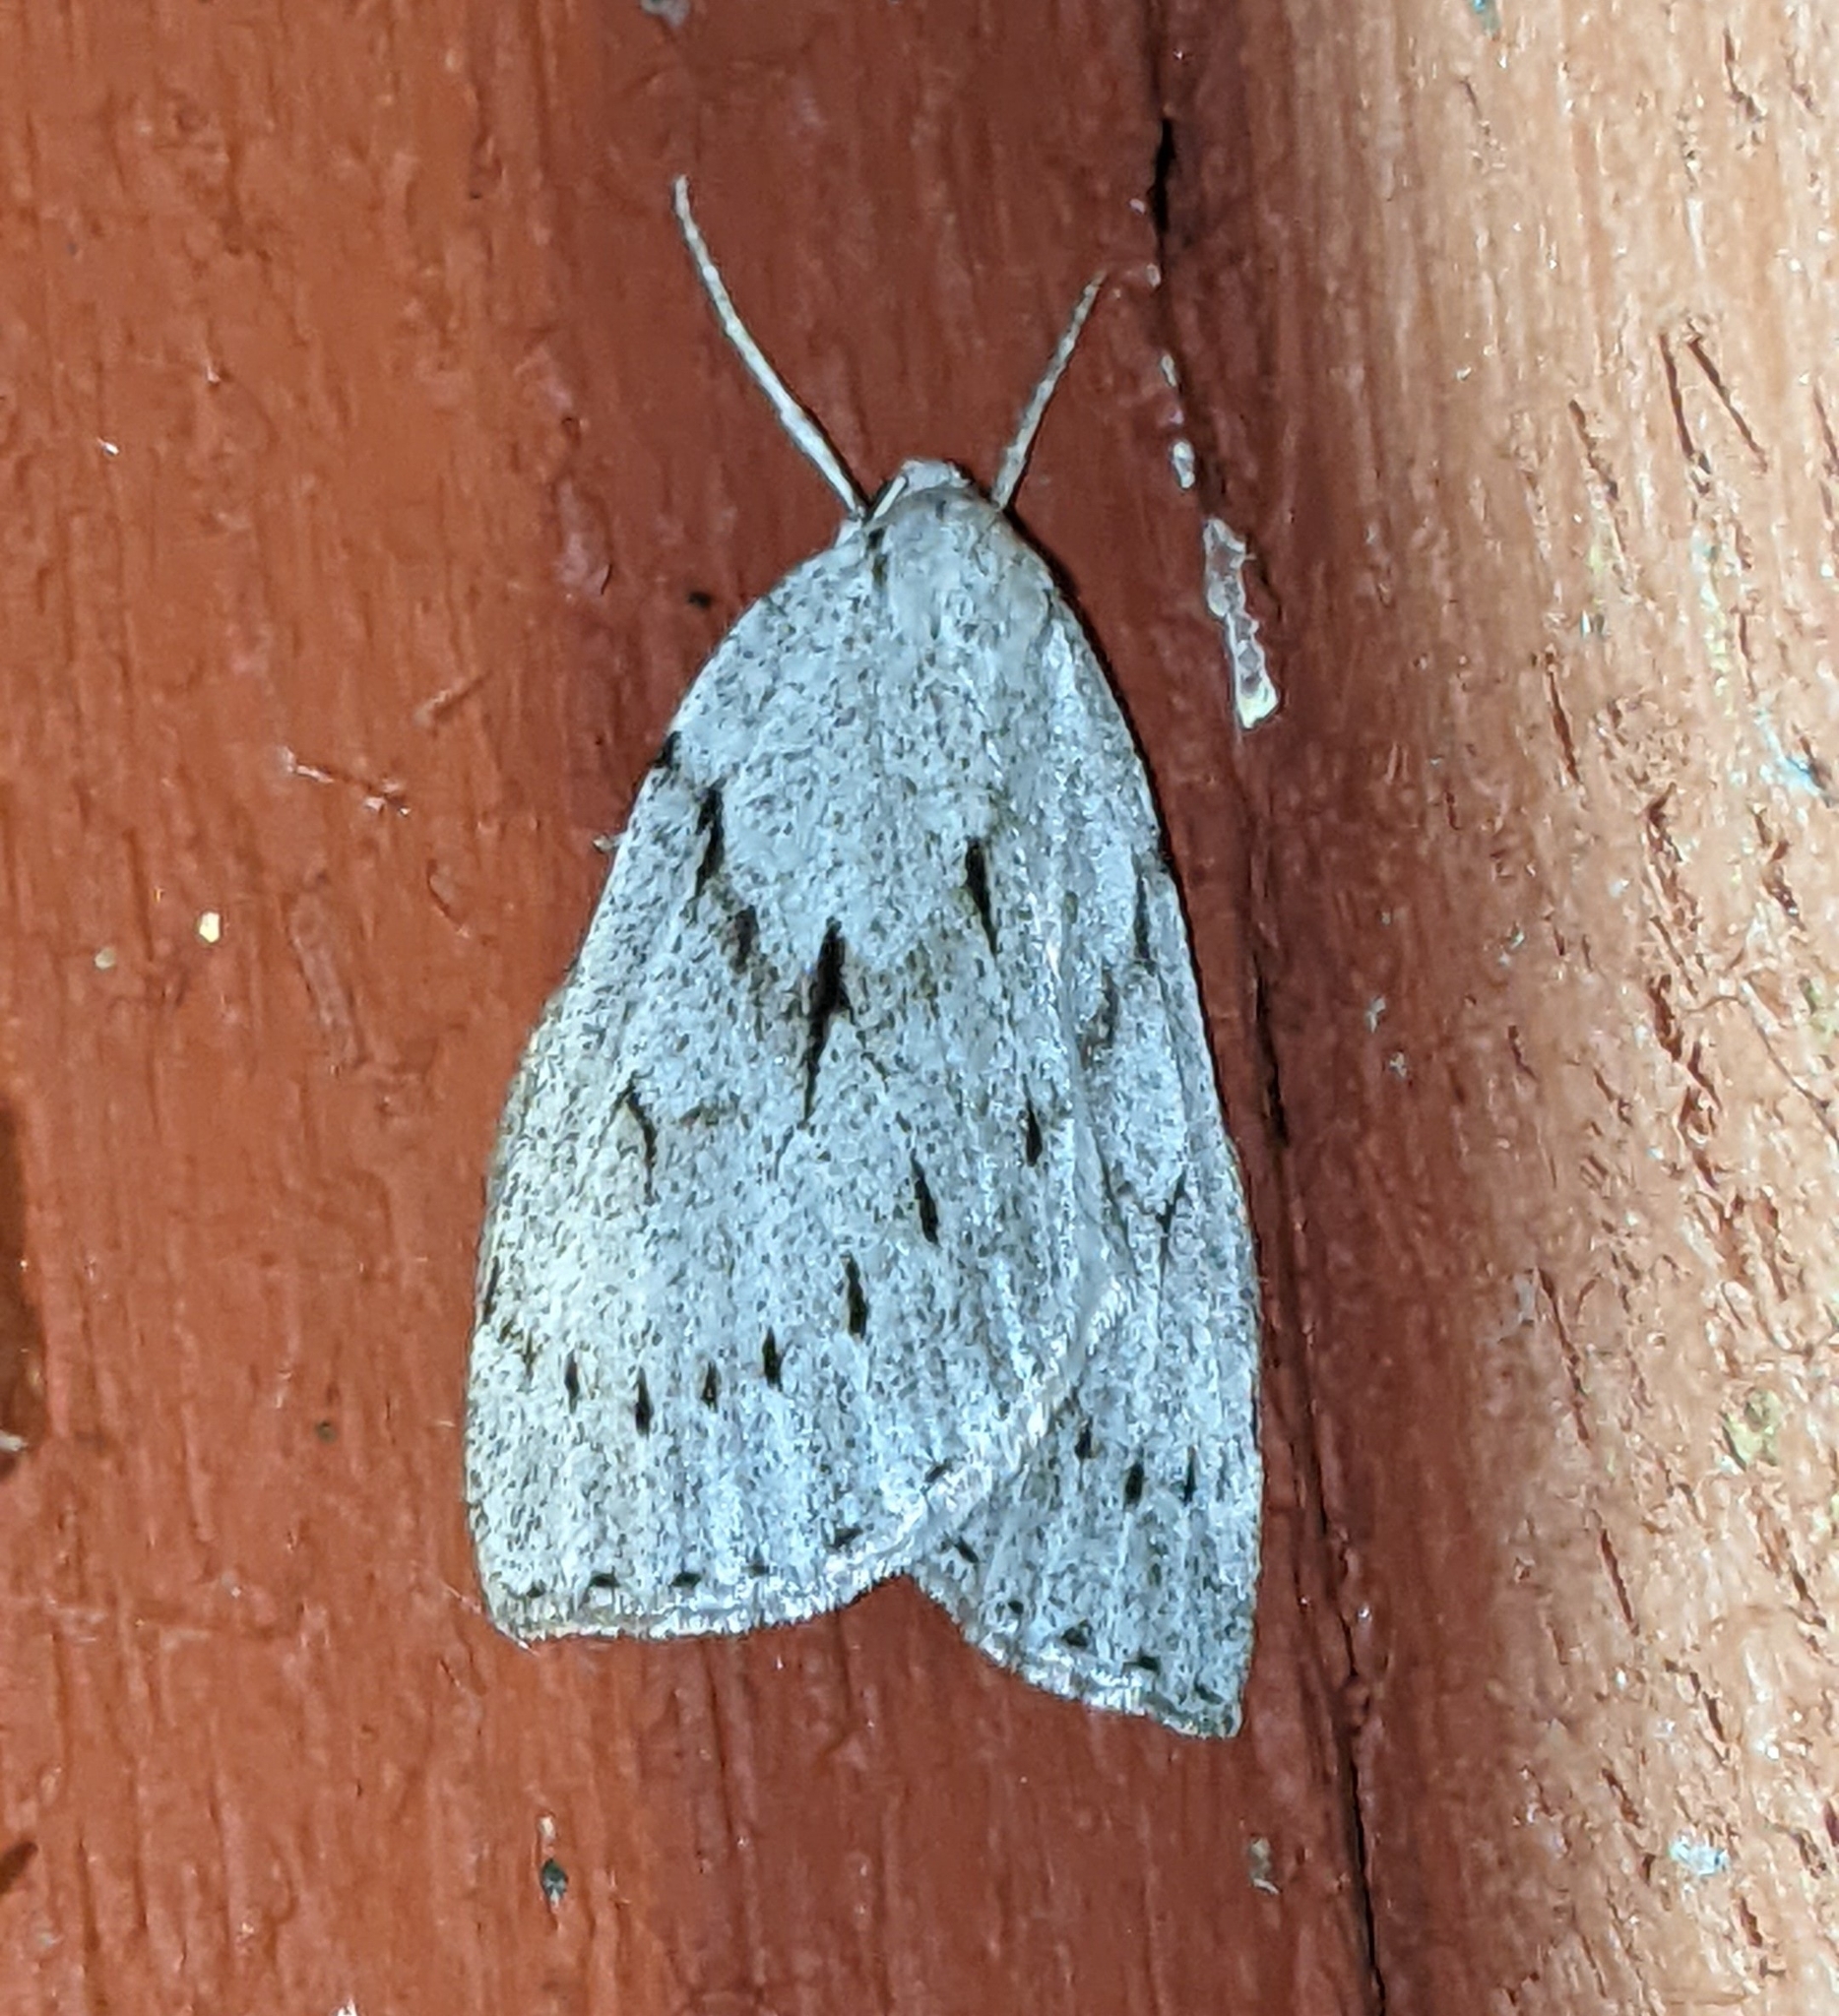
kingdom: Animalia
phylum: Arthropoda
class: Insecta
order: Lepidoptera
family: Geometridae
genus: Philedia
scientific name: Philedia punctomacularia
